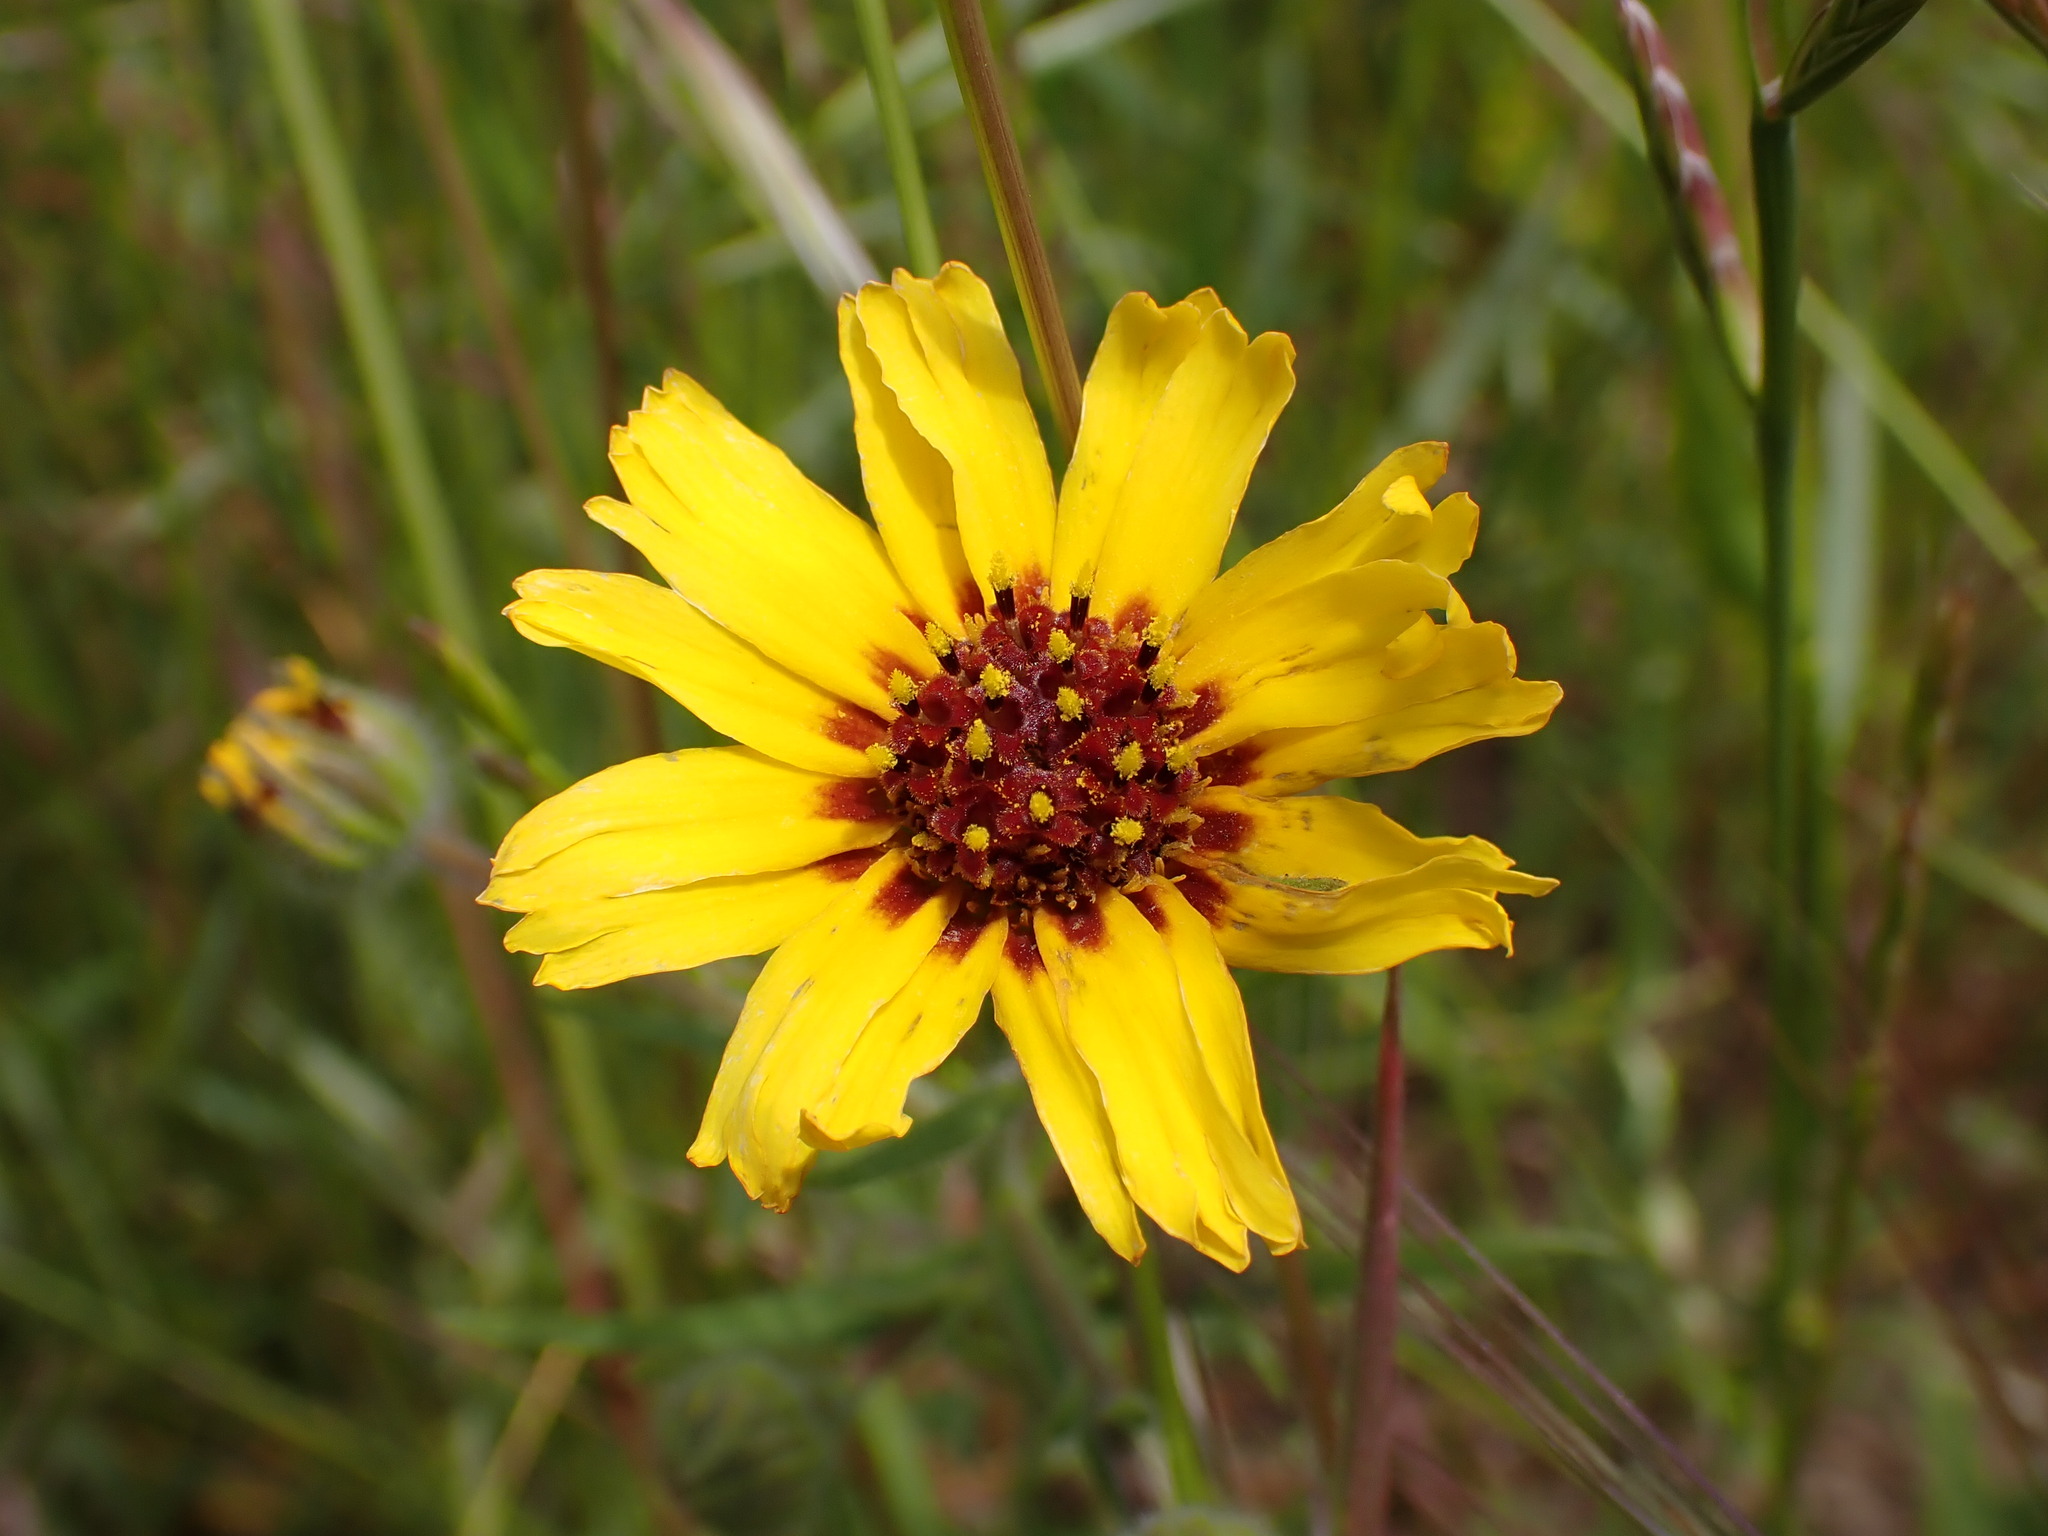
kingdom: Plantae
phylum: Tracheophyta
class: Magnoliopsida
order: Asterales
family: Asteraceae
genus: Madia
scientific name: Madia elegans
